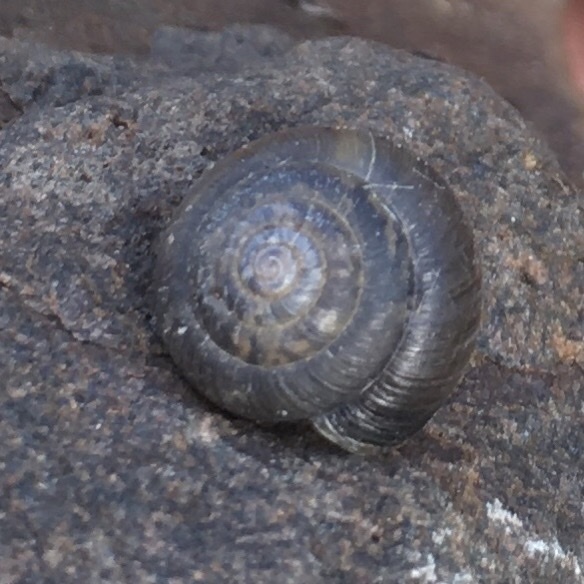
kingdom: Animalia
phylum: Mollusca
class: Gastropoda
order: Stylommatophora
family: Hygromiidae
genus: Trochulus
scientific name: Trochulus striolatus
